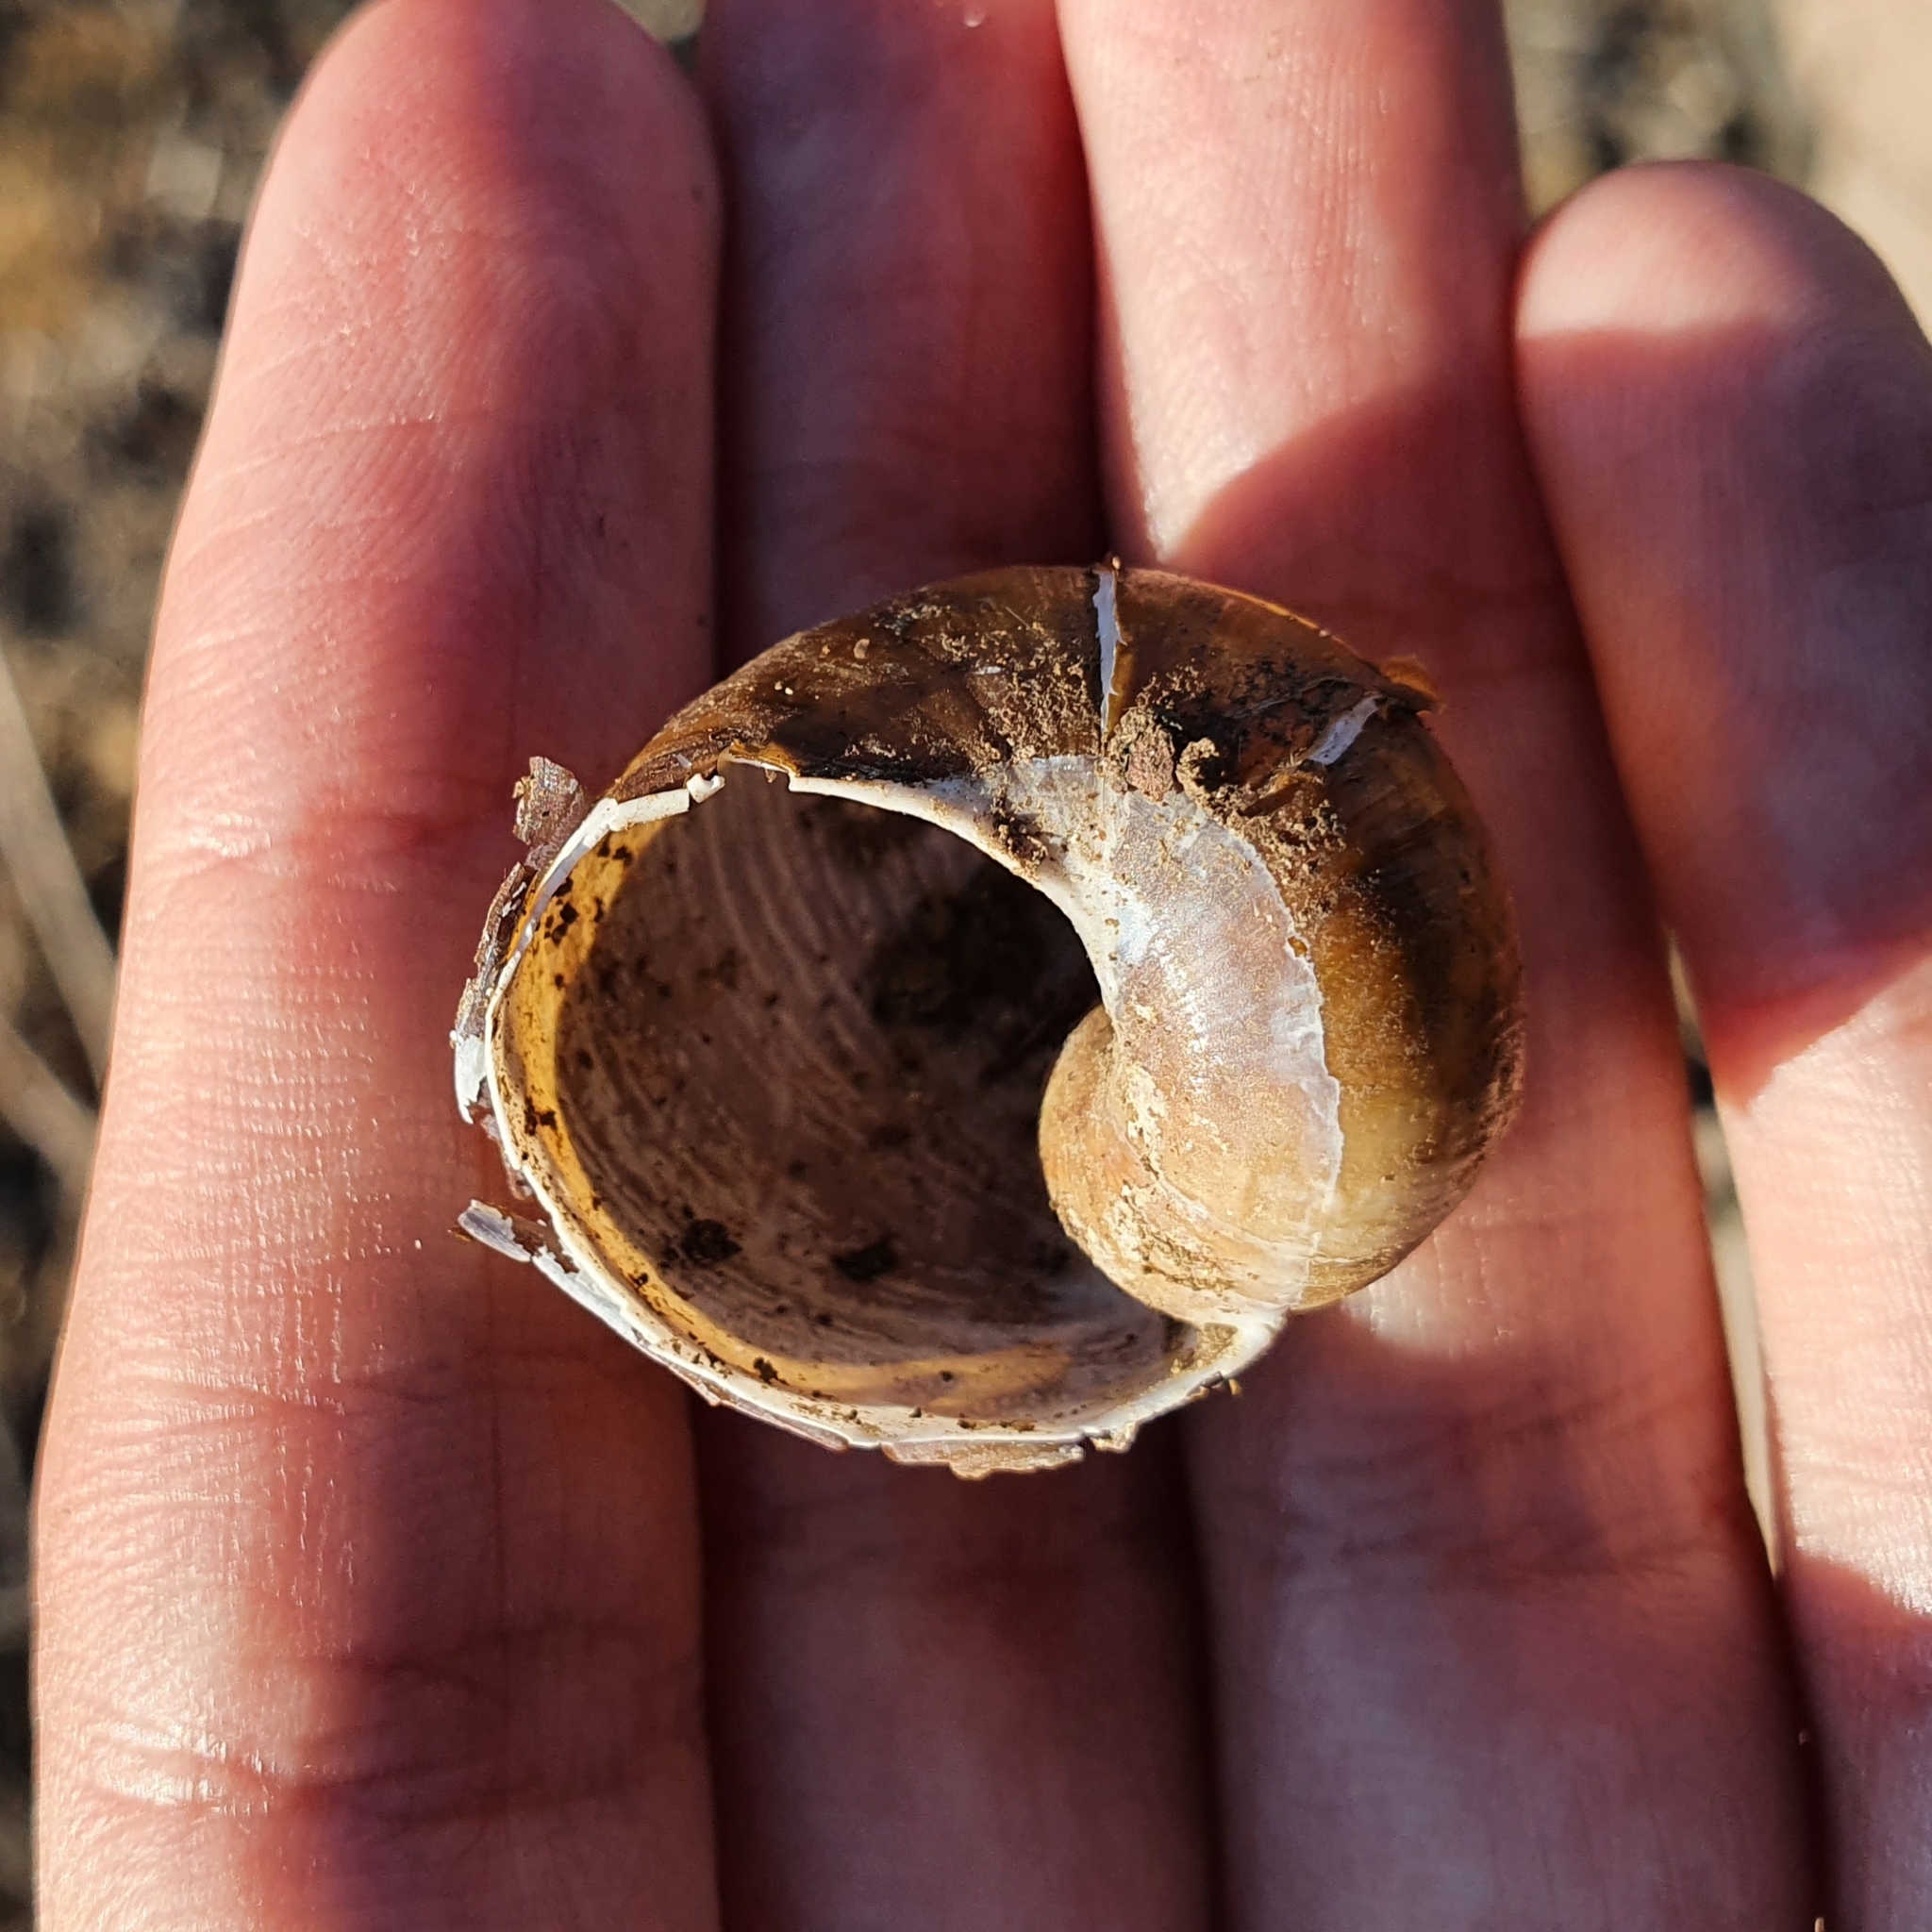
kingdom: Animalia
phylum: Mollusca
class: Gastropoda
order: Stylommatophora
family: Helicidae
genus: Cantareus
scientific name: Cantareus apertus
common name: Green gardensnail
